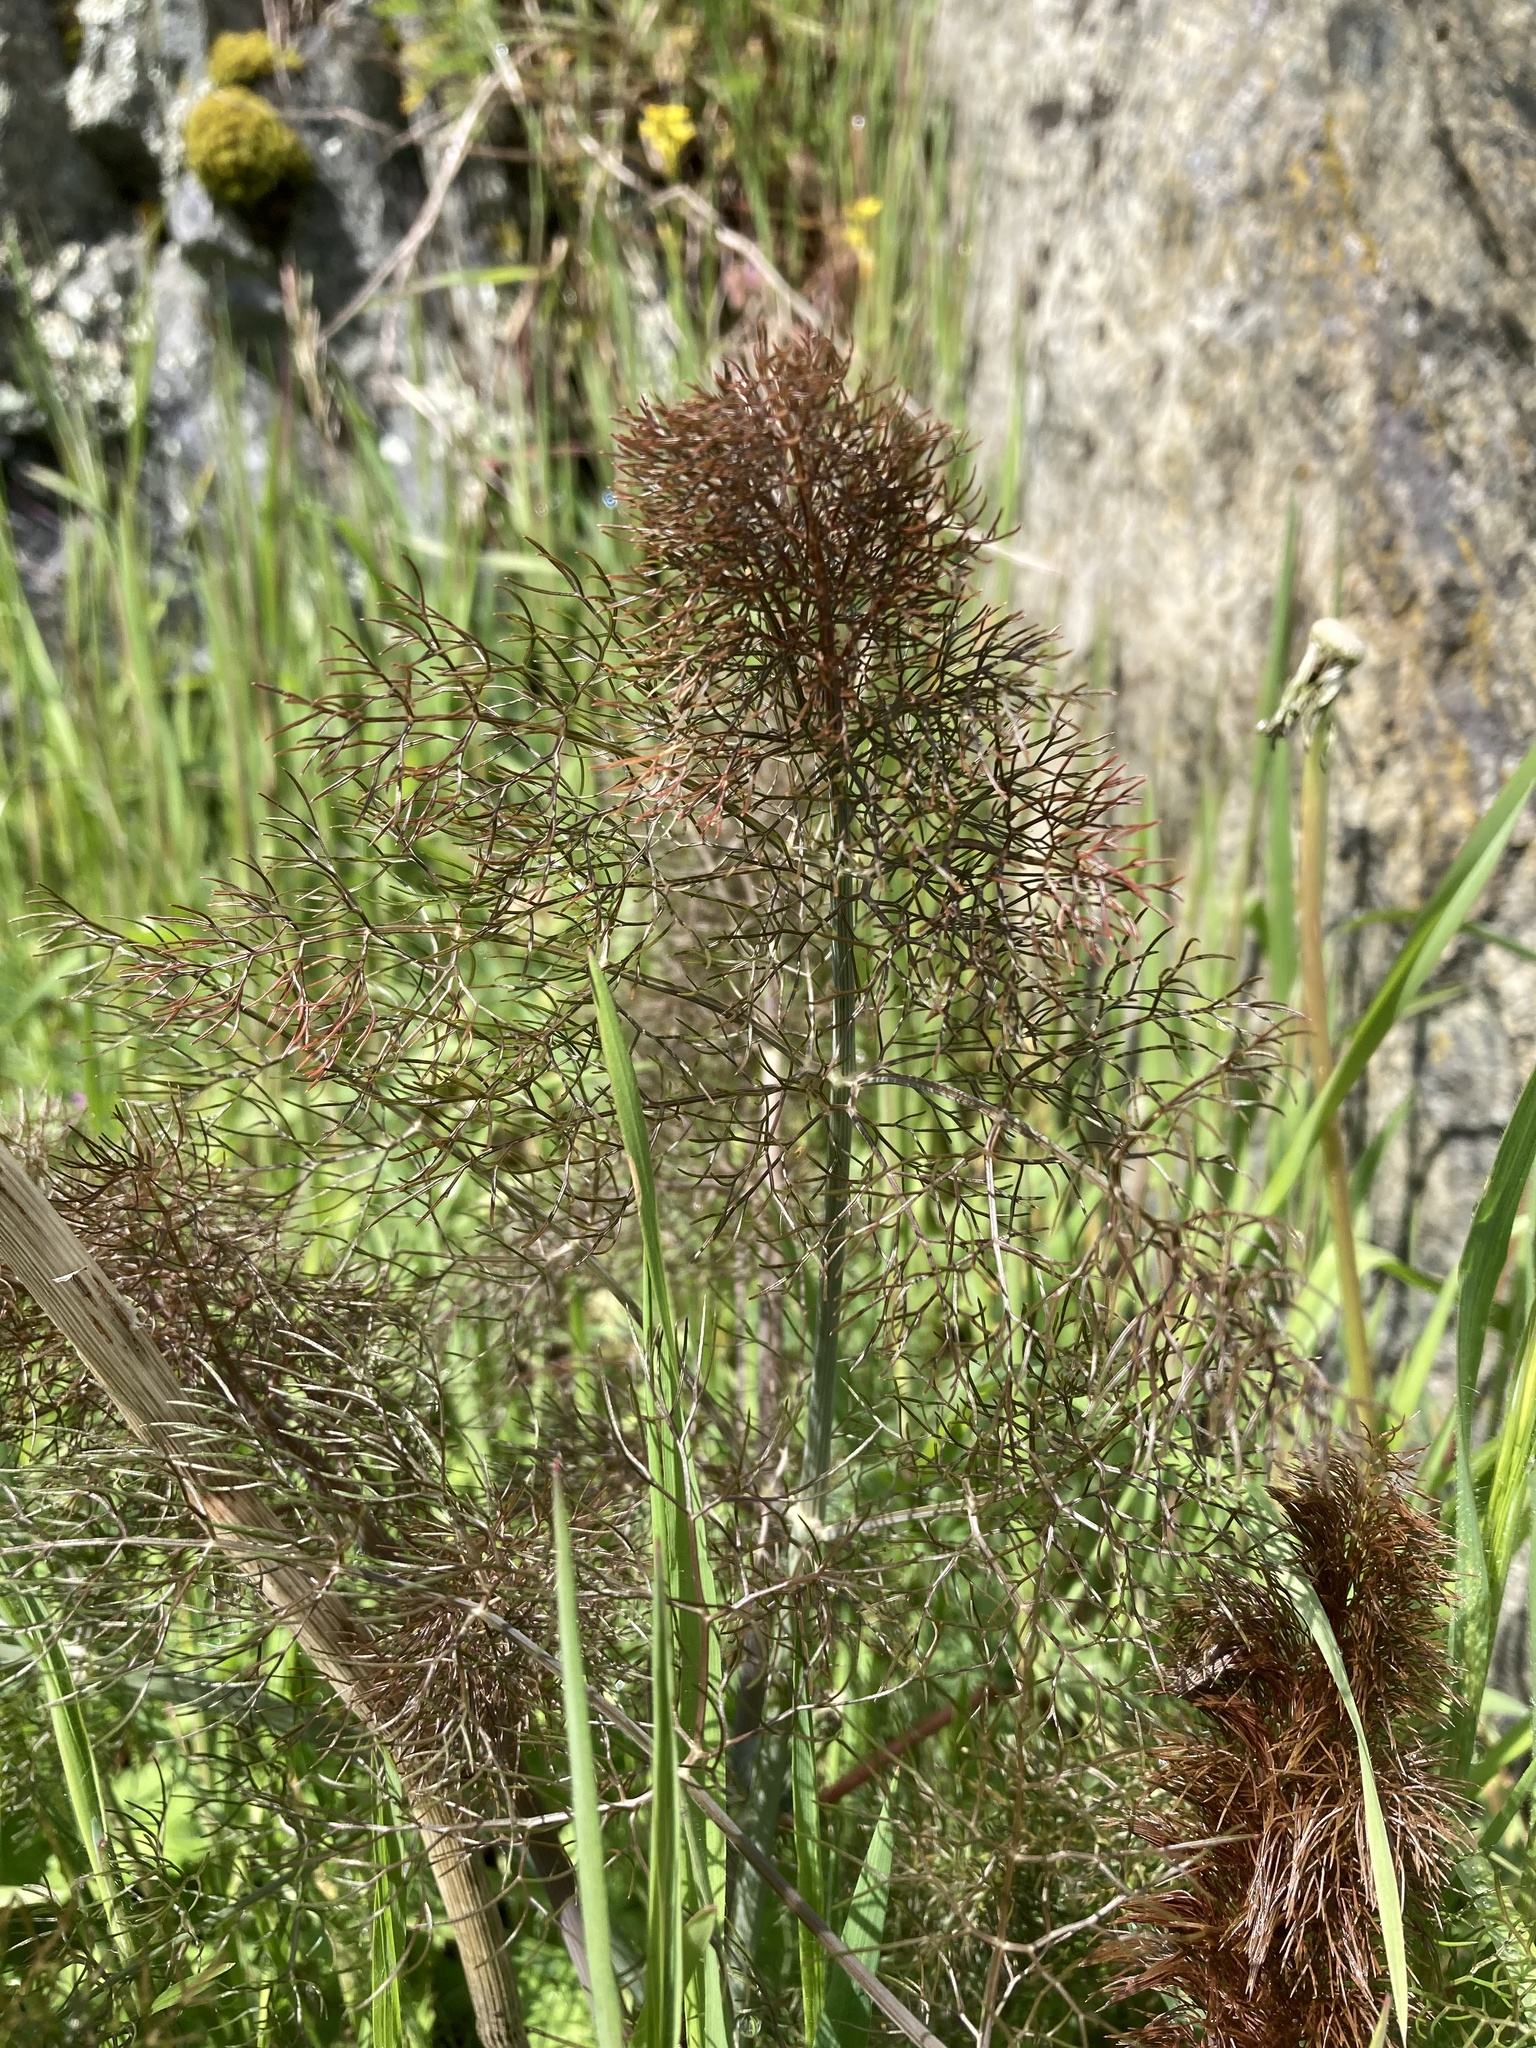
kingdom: Plantae
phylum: Tracheophyta
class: Magnoliopsida
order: Apiales
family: Apiaceae
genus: Foeniculum
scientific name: Foeniculum vulgare
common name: Fennel
